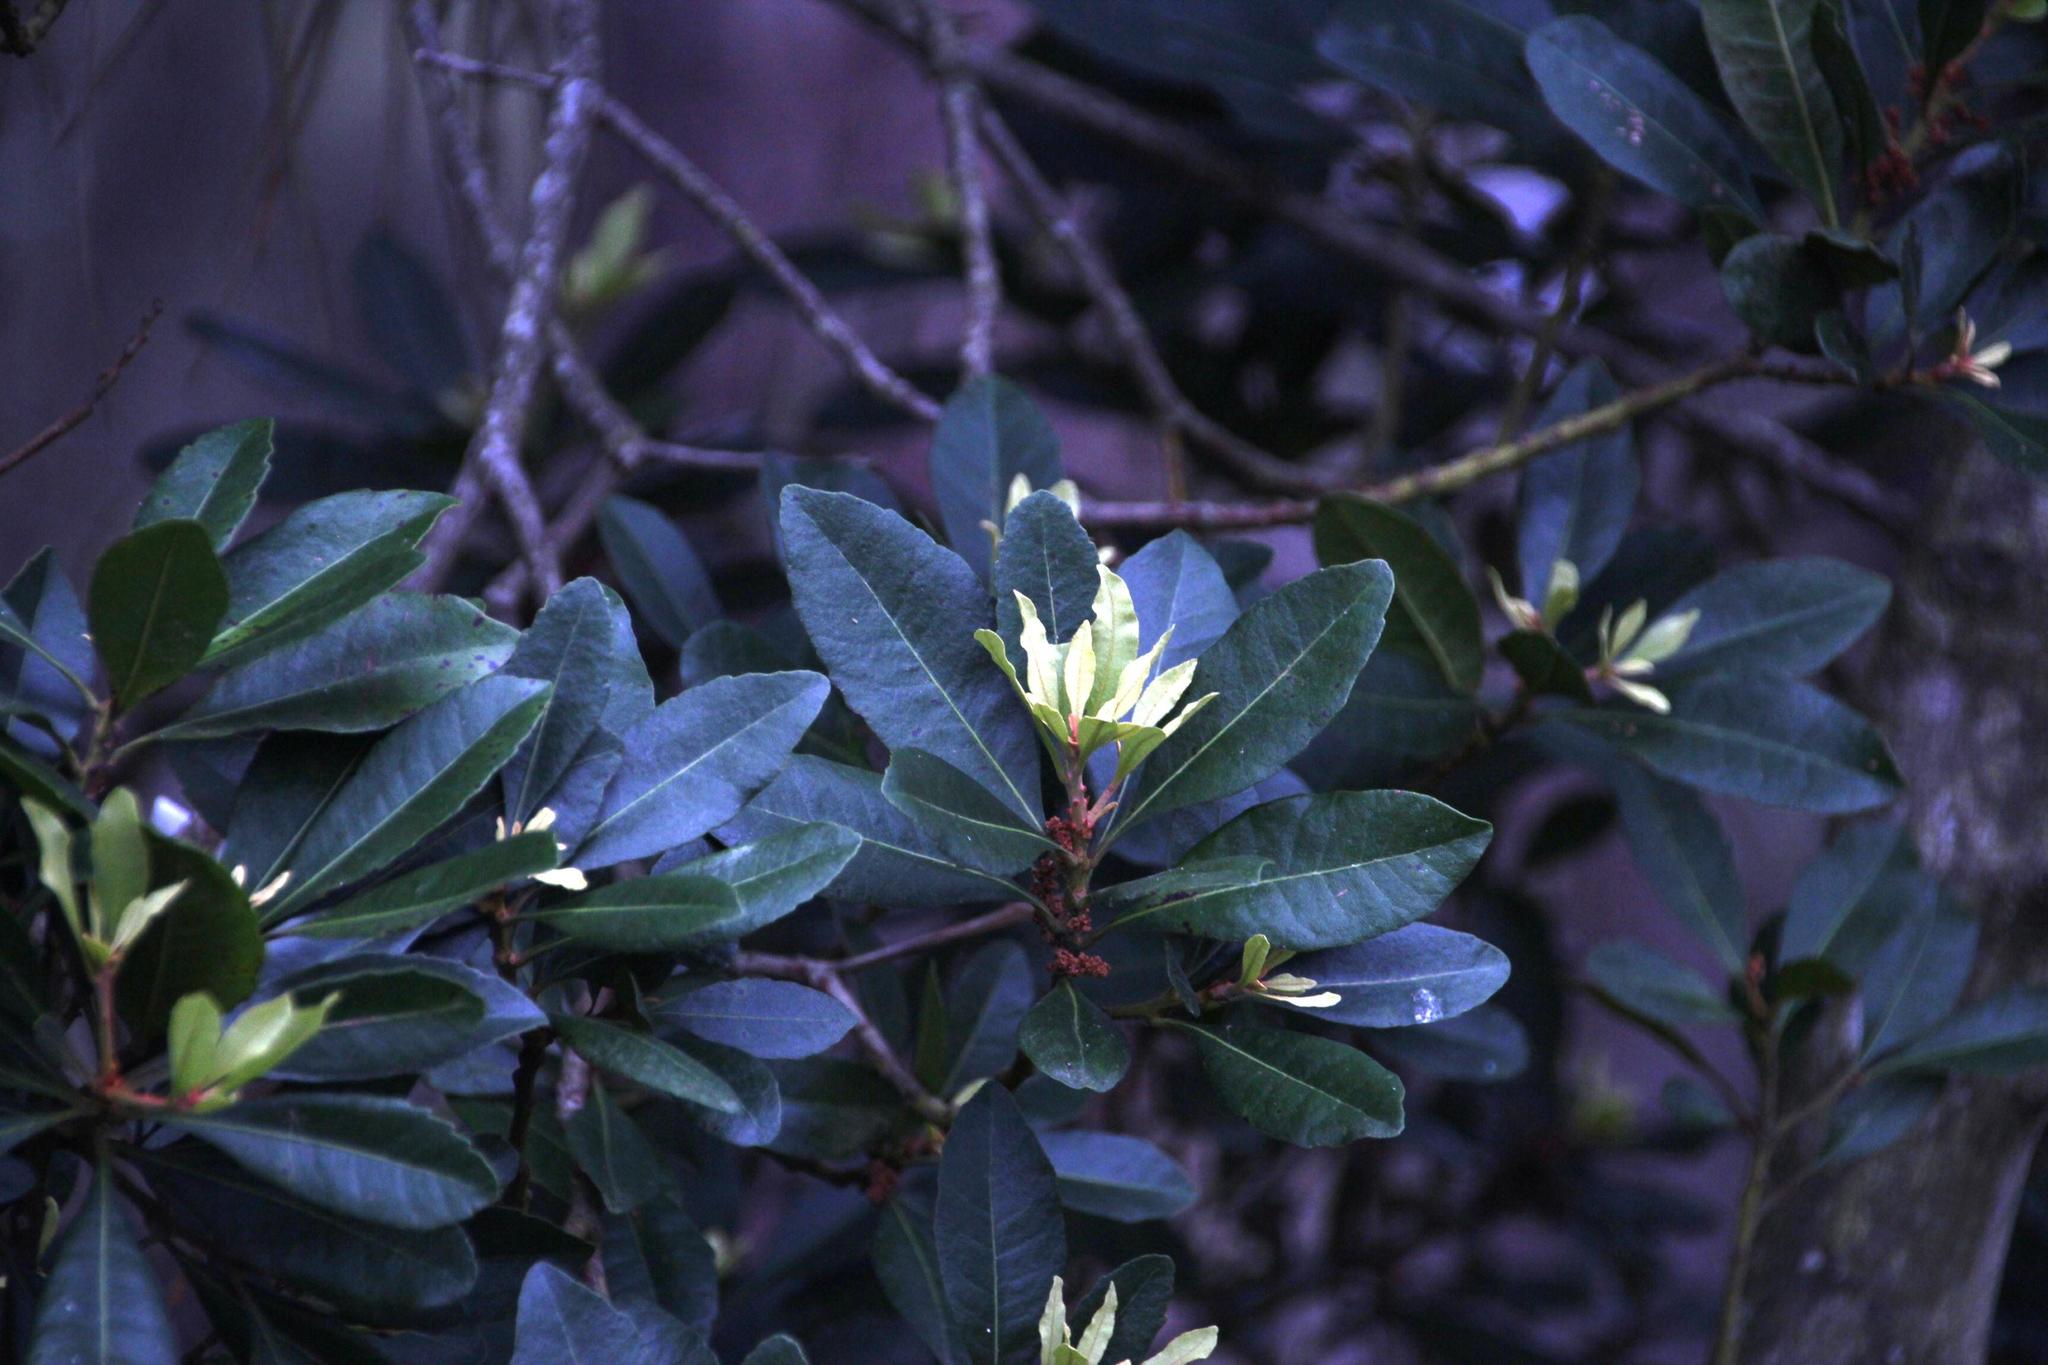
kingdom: Plantae
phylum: Tracheophyta
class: Magnoliopsida
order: Fagales
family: Myricaceae
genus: Morella
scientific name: Morella faya
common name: Firetree
